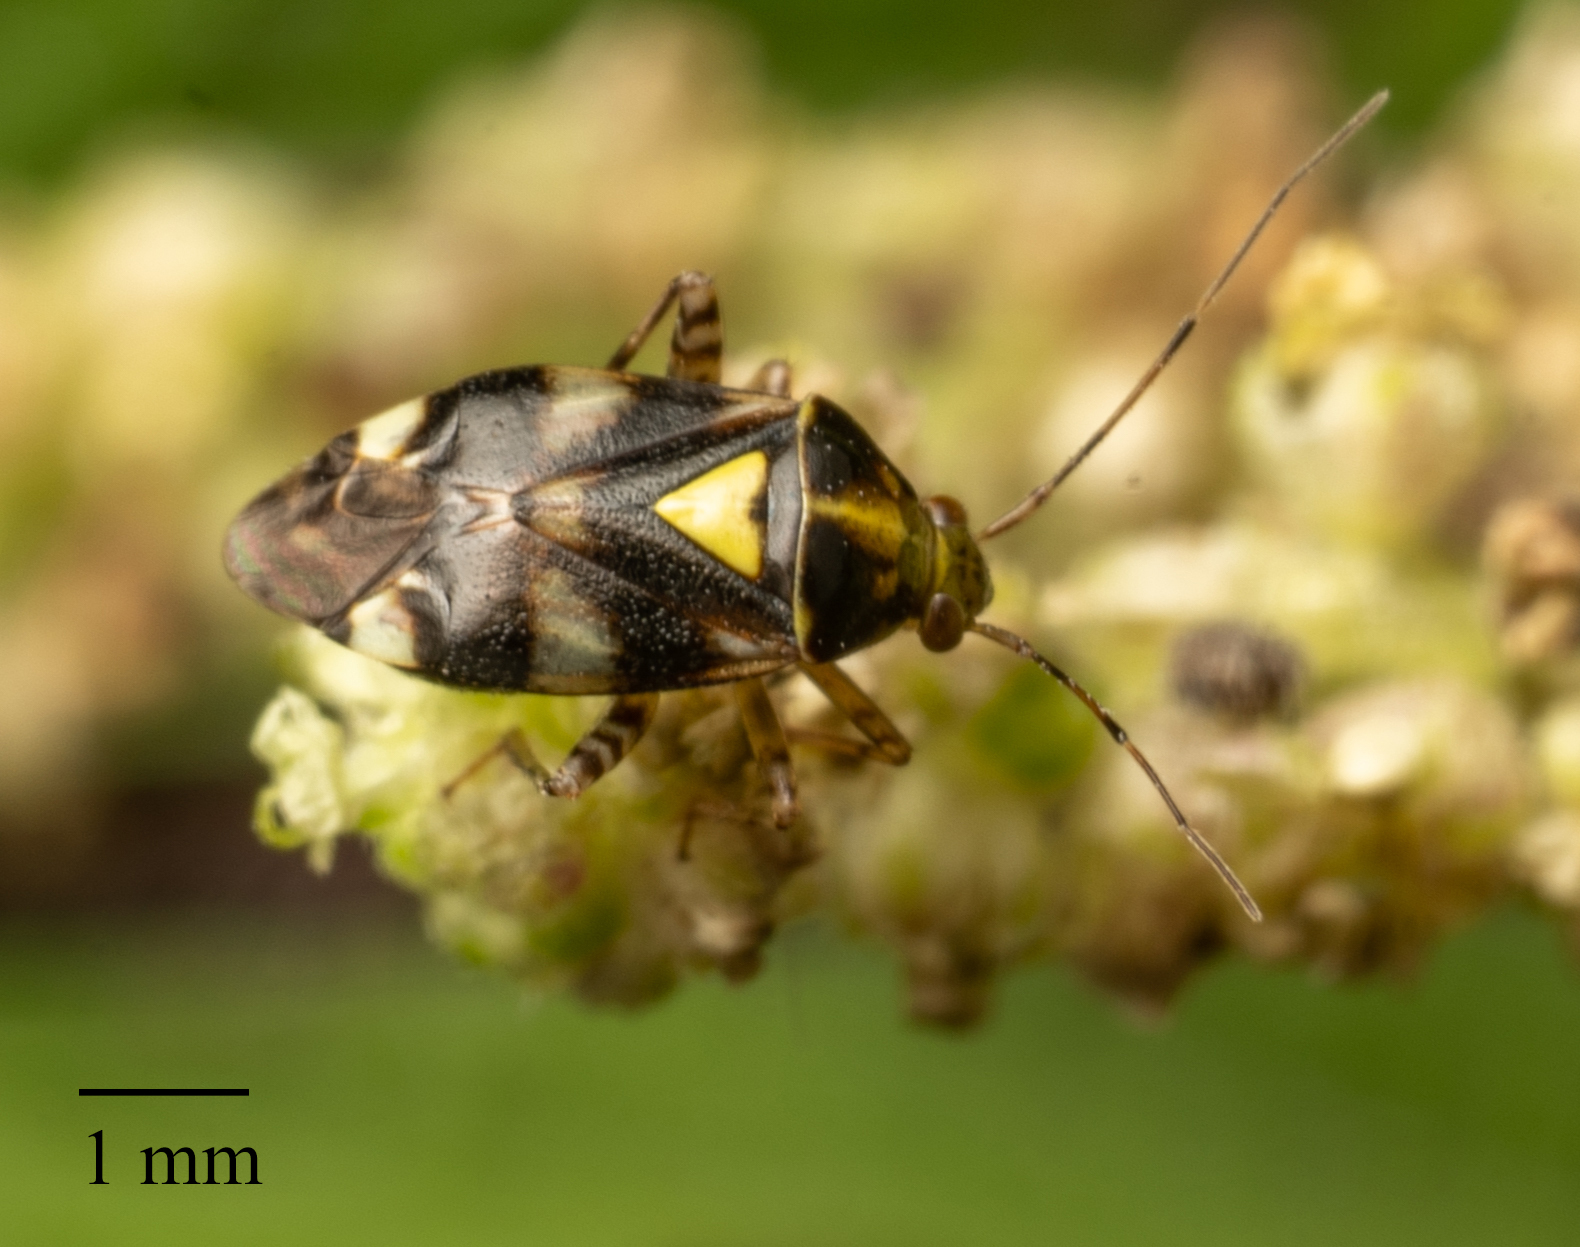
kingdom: Animalia
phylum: Arthropoda
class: Insecta
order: Hemiptera
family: Miridae
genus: Liocoris
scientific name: Liocoris tripustulatus
